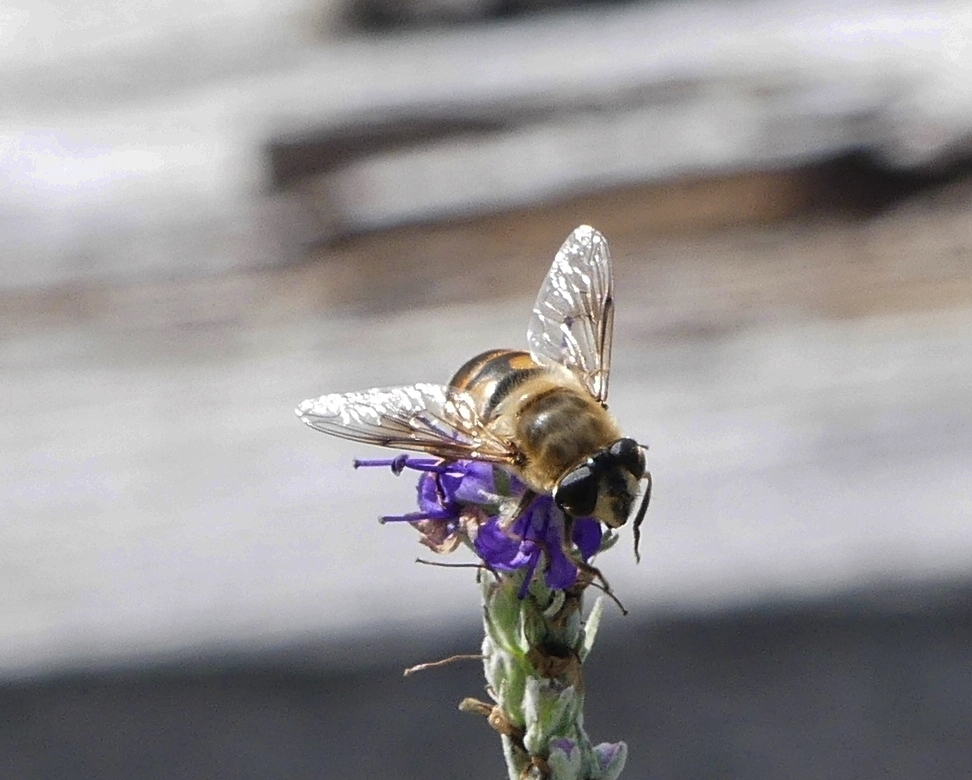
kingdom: Animalia
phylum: Arthropoda
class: Insecta
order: Diptera
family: Syrphidae
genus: Eristalis
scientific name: Eristalis tenax
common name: Drone fly
